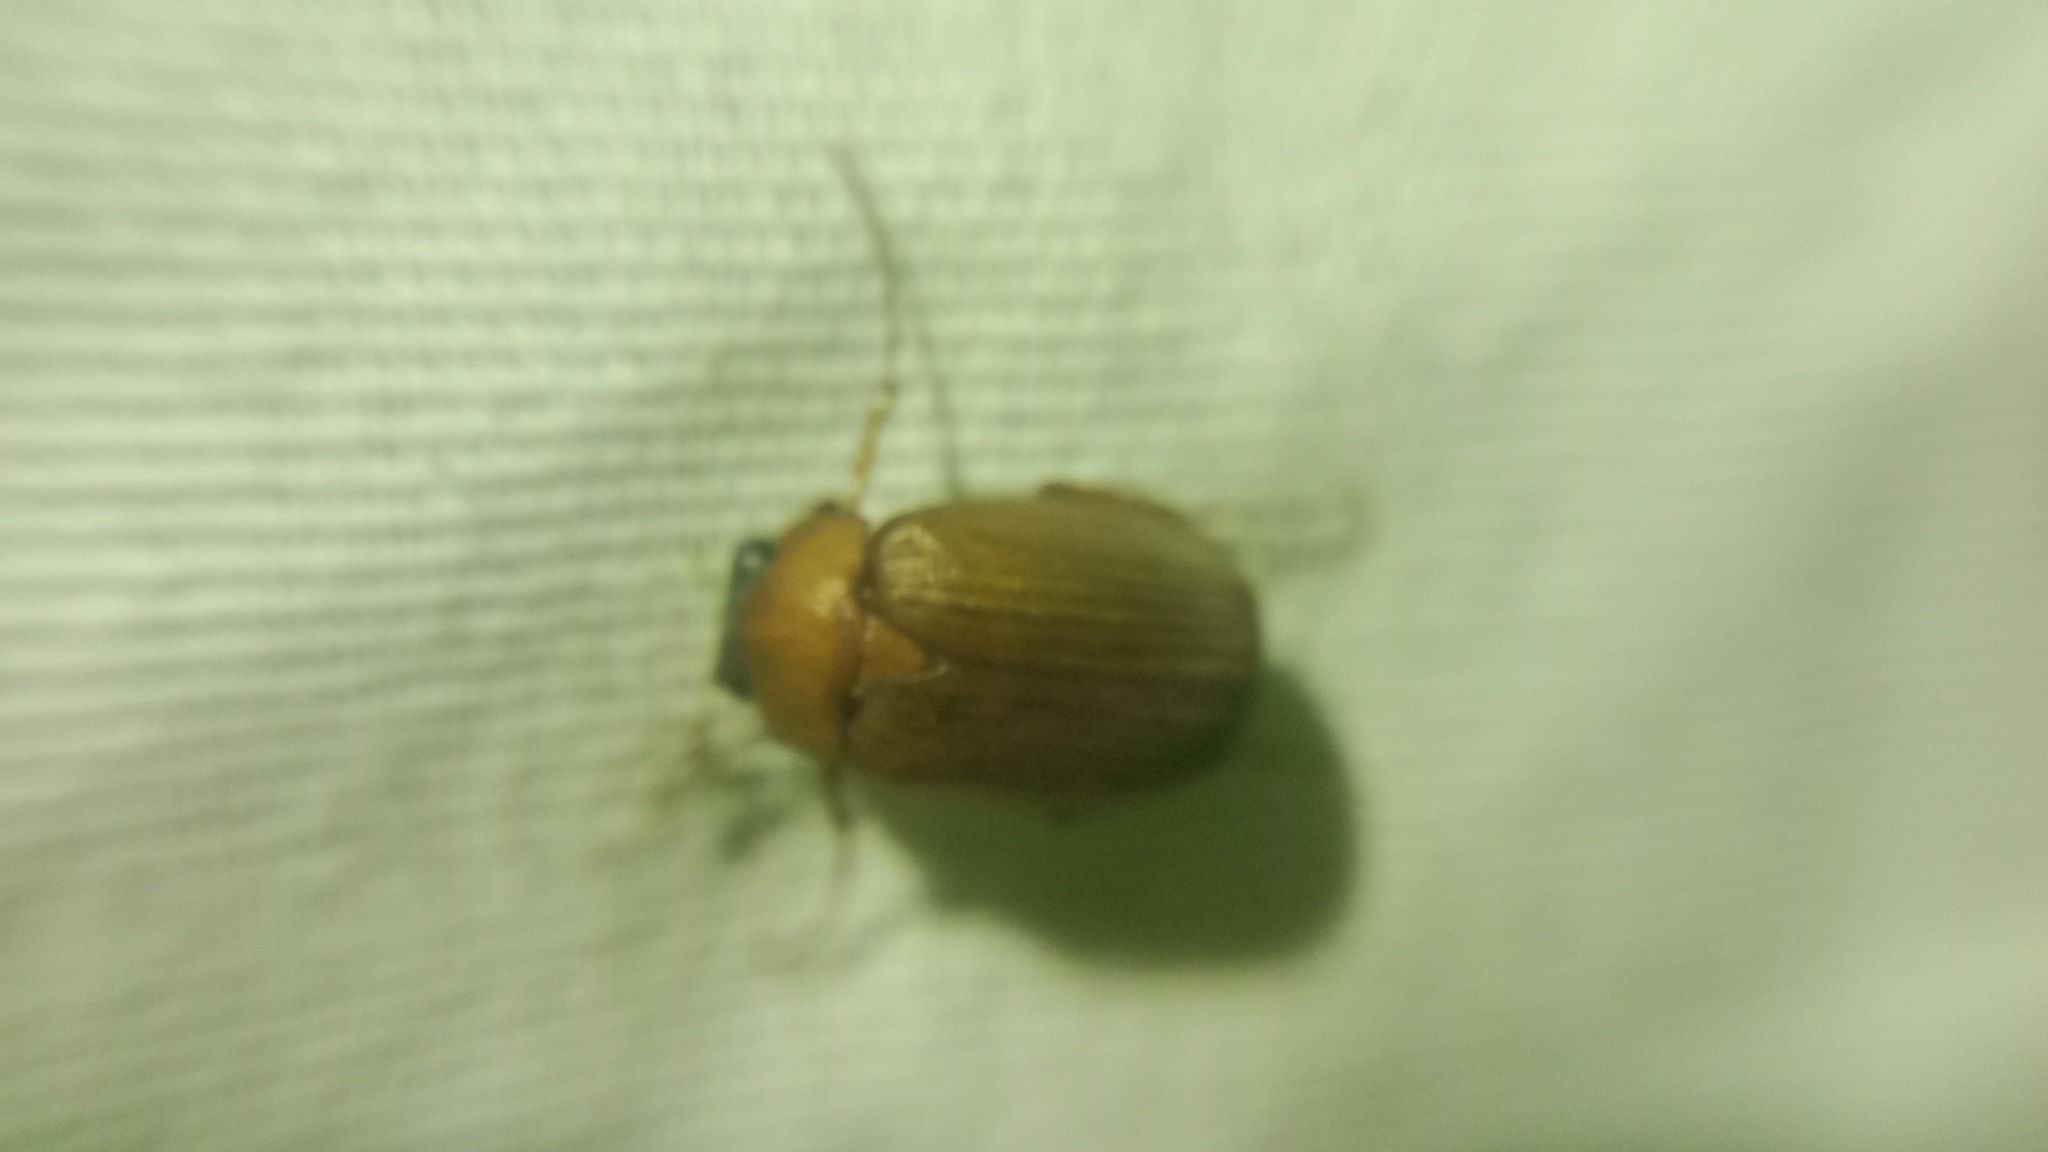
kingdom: Animalia
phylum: Arthropoda
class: Insecta
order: Coleoptera
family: Scarabaeidae
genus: Serica
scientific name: Serica brunnea
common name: Brown chafer
